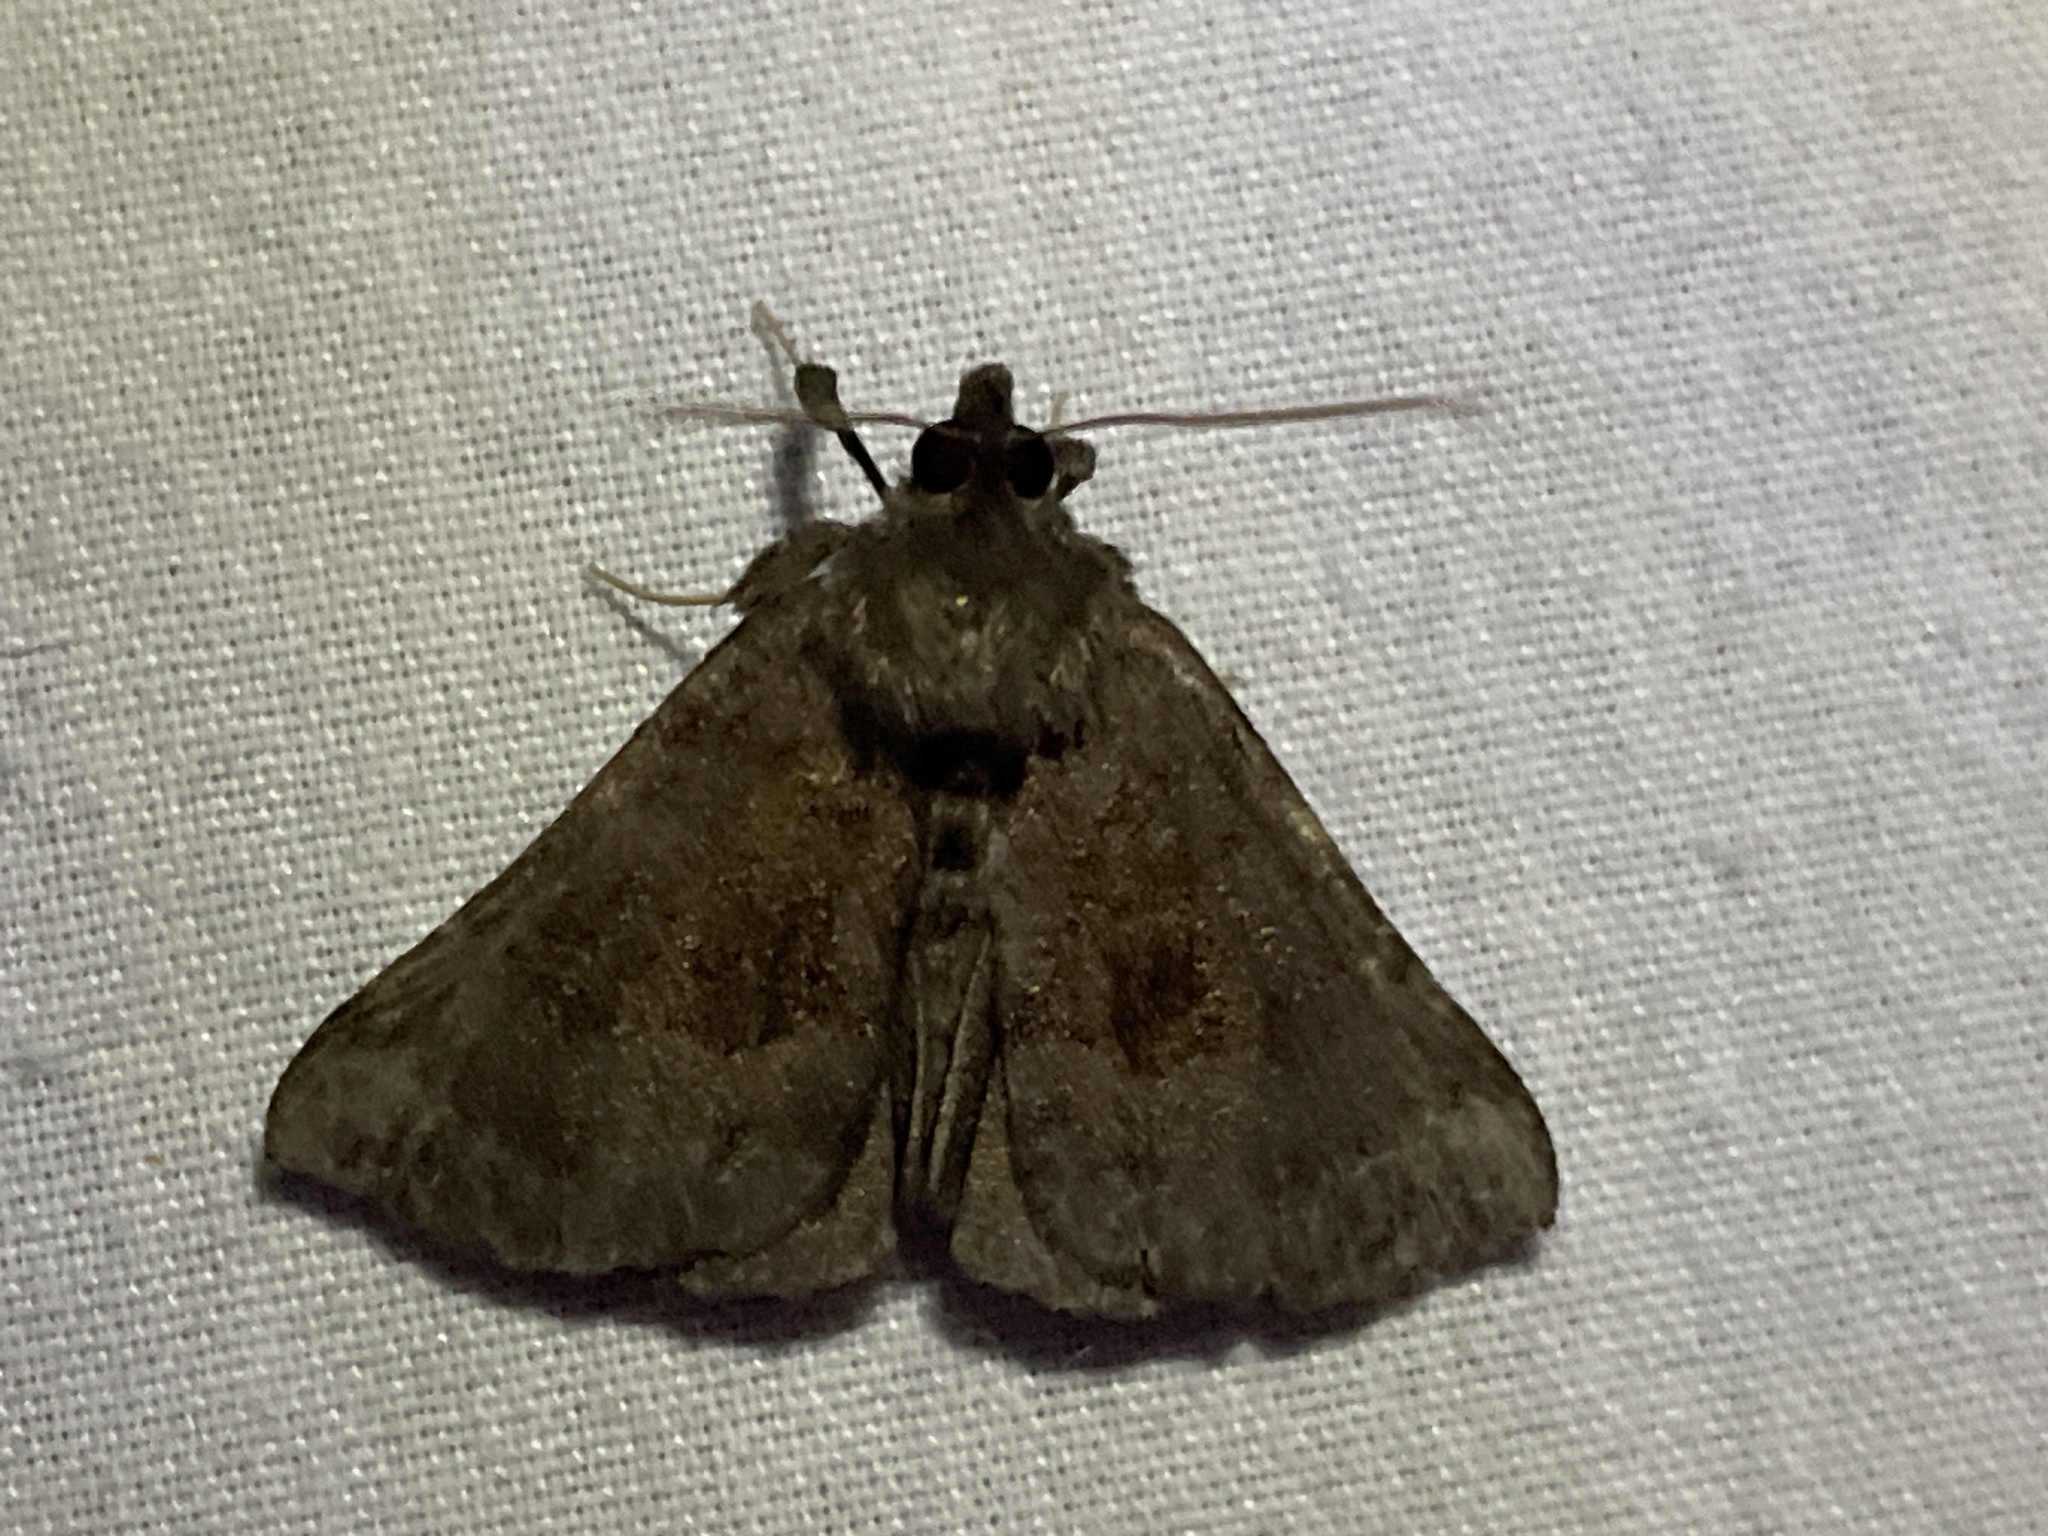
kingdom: Animalia
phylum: Arthropoda
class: Insecta
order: Lepidoptera
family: Erebidae
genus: Hypena
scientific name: Hypena madefactalis
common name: Gray-edged snout
